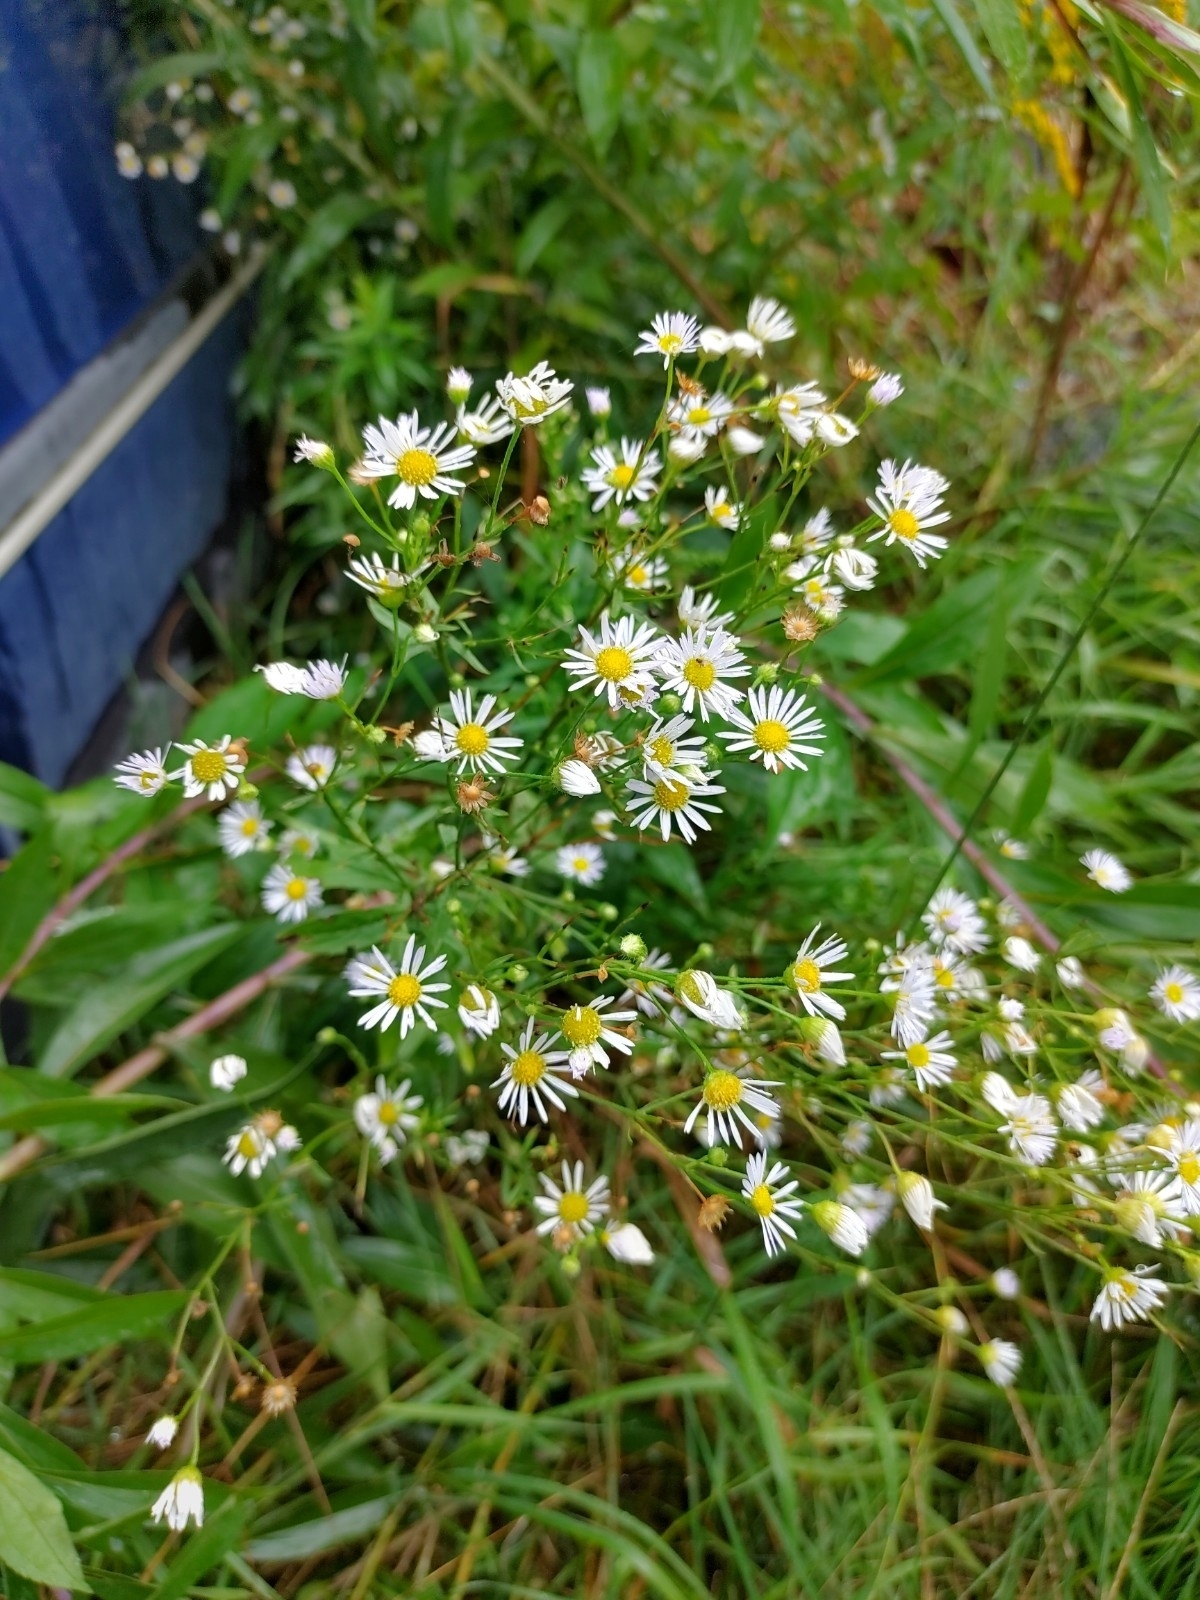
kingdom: Plantae
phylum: Tracheophyta
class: Magnoliopsida
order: Asterales
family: Asteraceae
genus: Erigeron
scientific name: Erigeron annuus
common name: Tall fleabane
